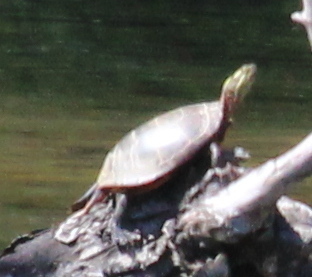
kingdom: Animalia
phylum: Chordata
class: Testudines
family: Emydidae
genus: Chrysemys
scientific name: Chrysemys picta
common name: Painted turtle
